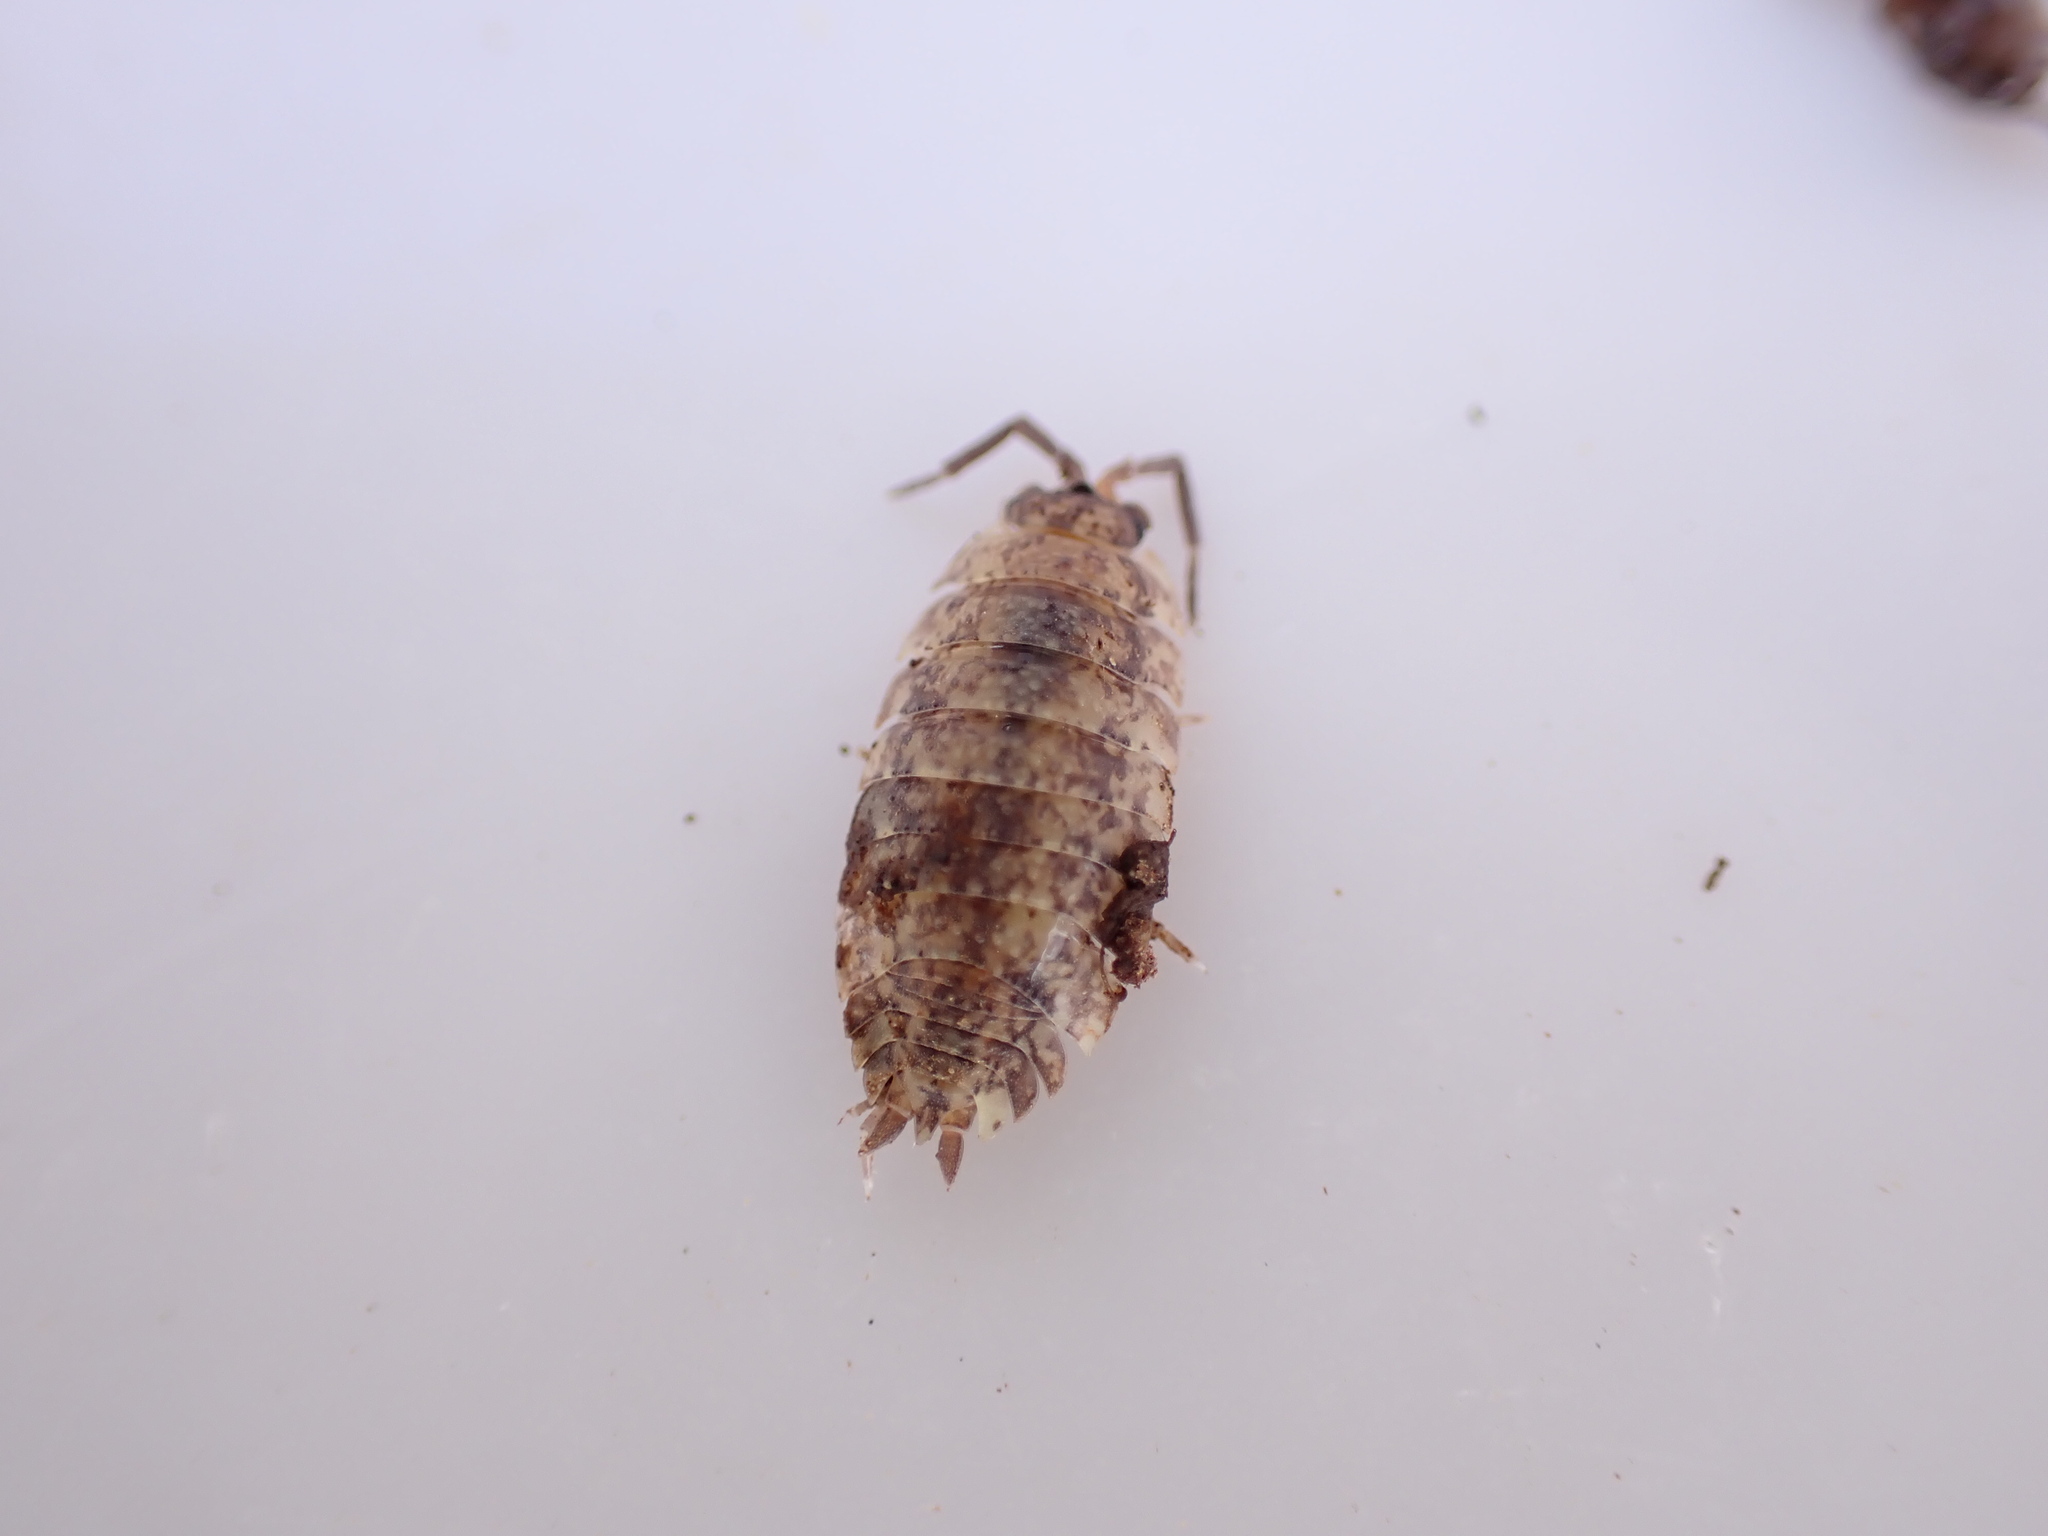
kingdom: Animalia
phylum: Arthropoda
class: Malacostraca
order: Isopoda
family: Porcellionidae
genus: Porcellio
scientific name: Porcellio scaber
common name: Common rough woodlouse
